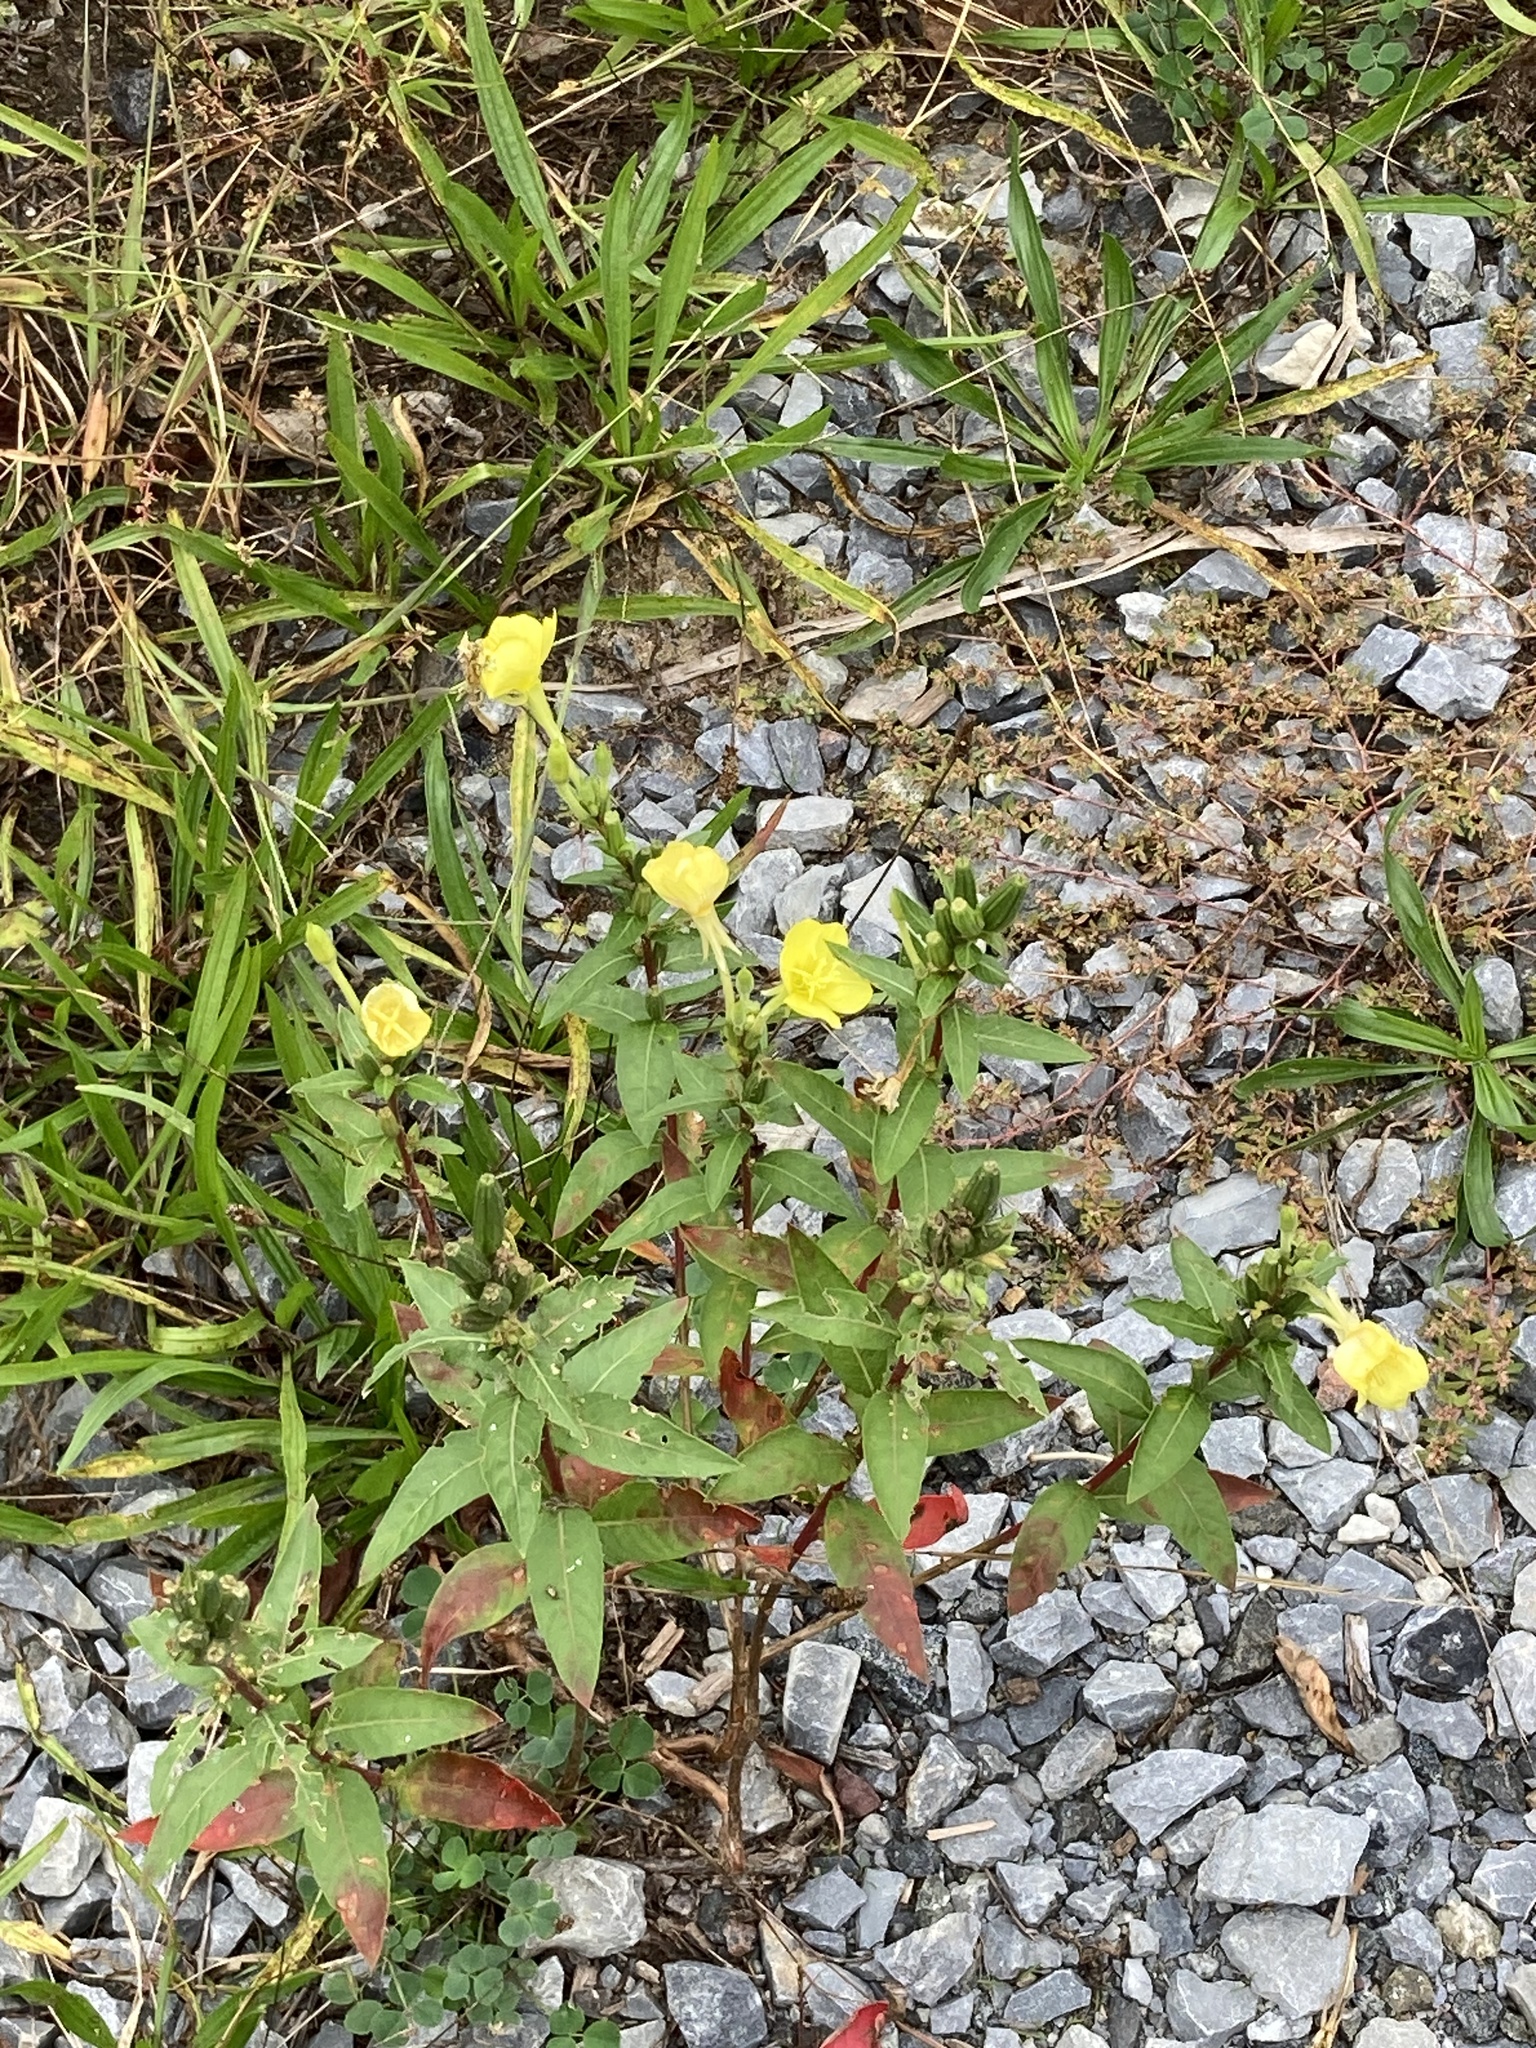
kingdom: Plantae
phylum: Tracheophyta
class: Magnoliopsida
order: Myrtales
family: Onagraceae
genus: Oenothera
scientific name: Oenothera biennis
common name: Common evening-primrose
